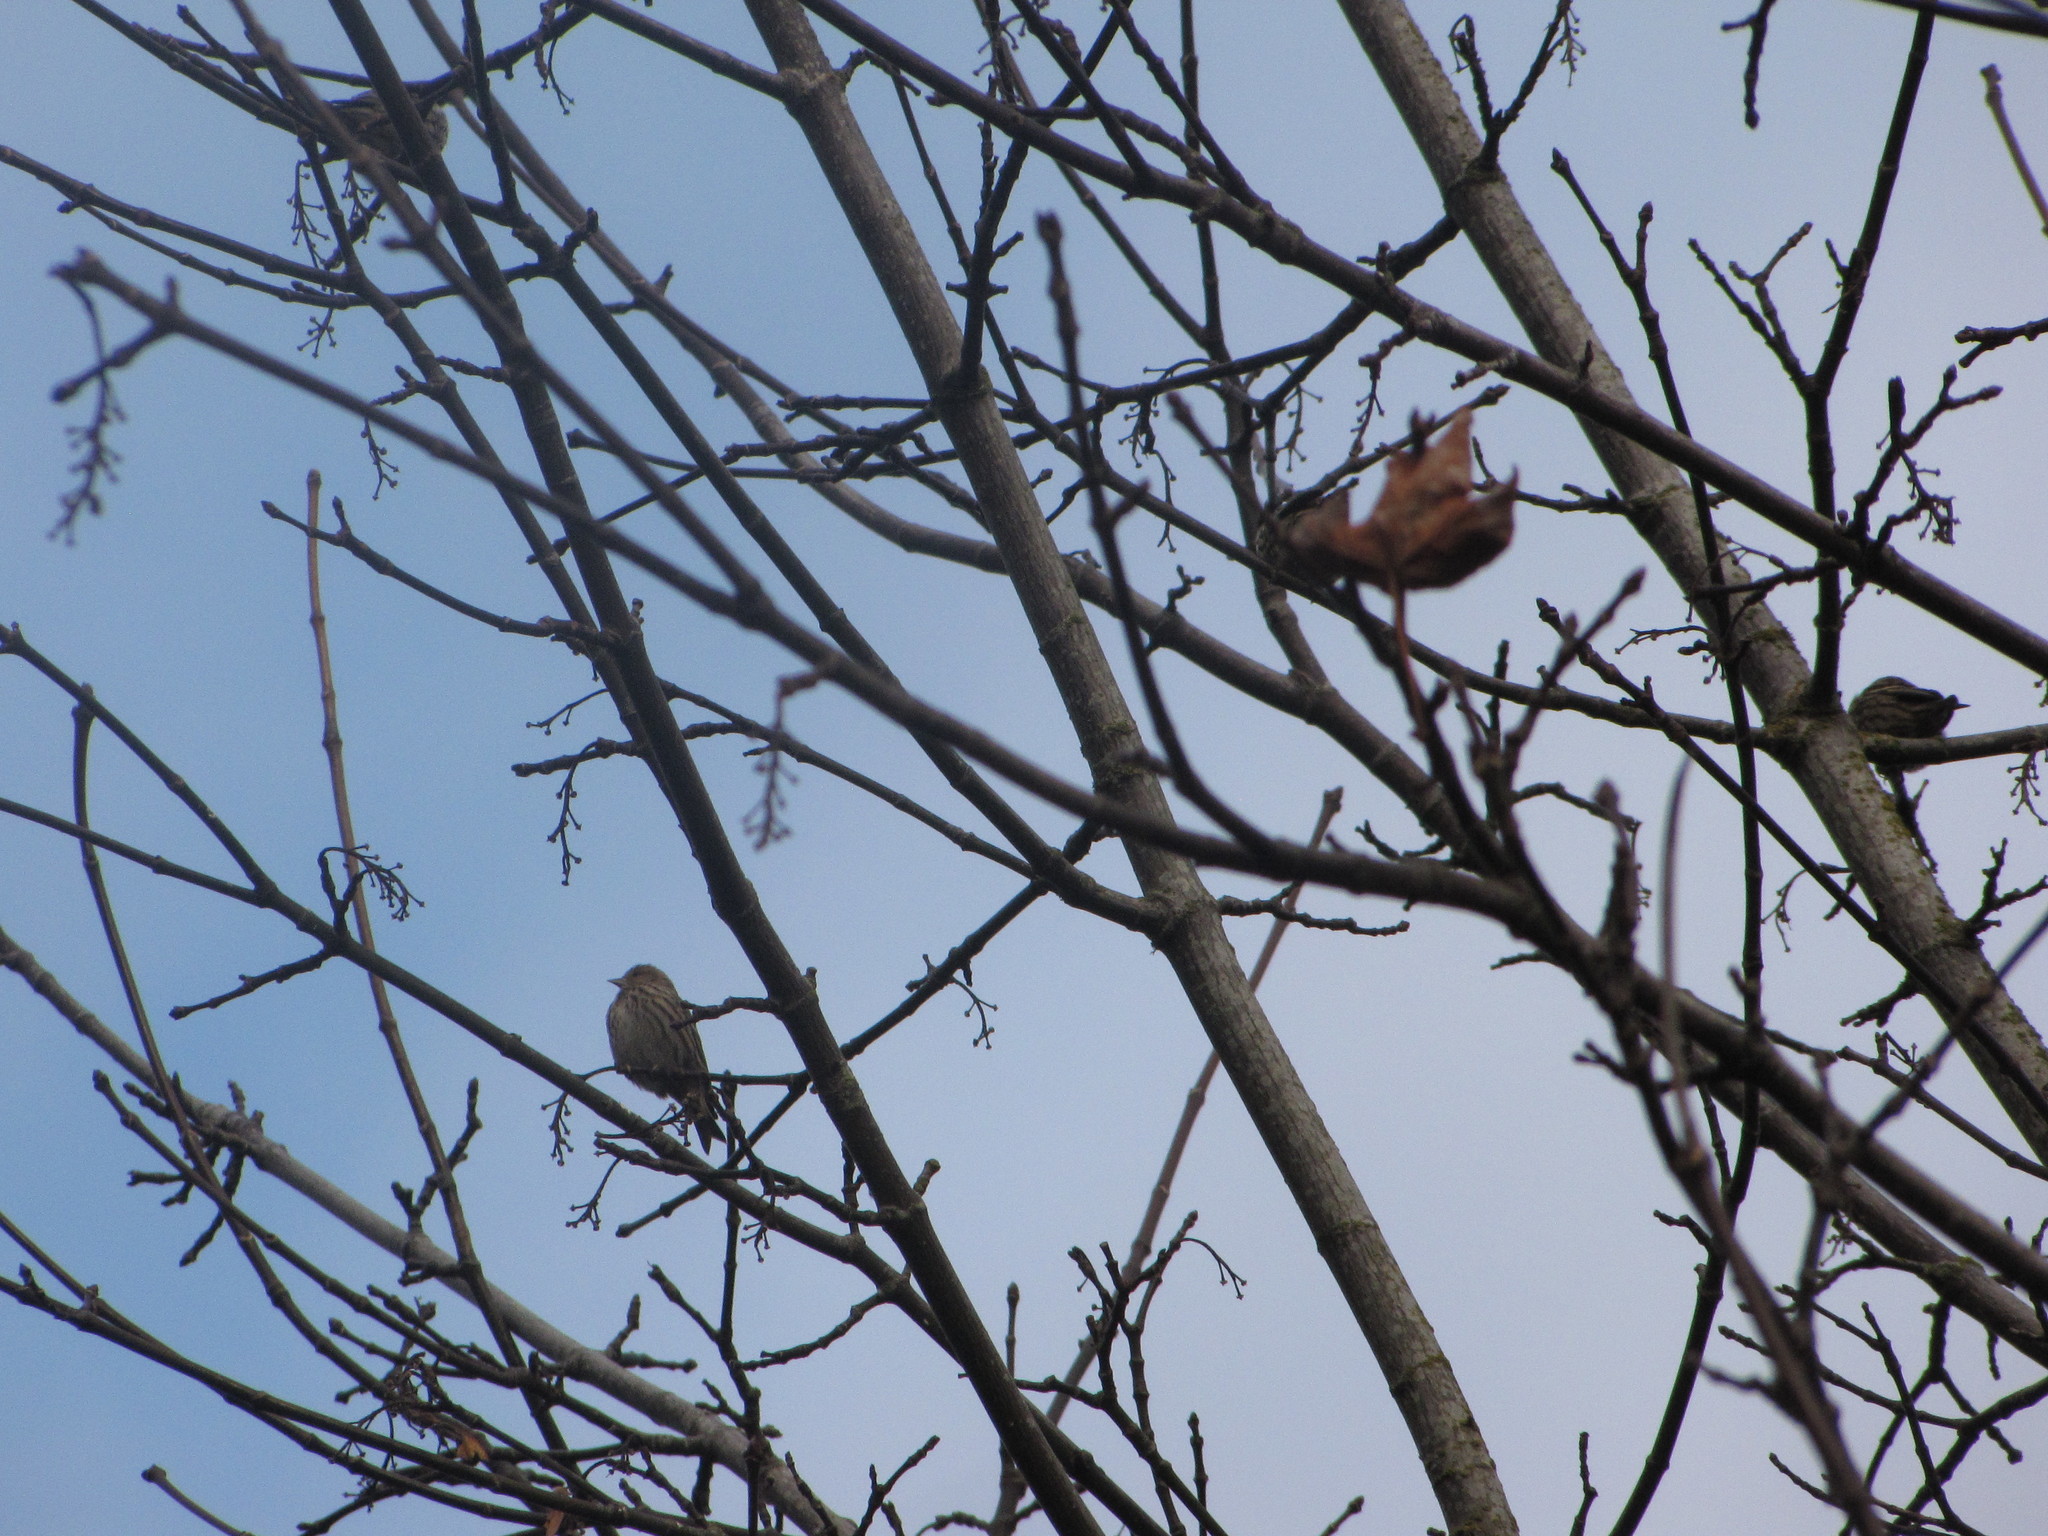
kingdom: Animalia
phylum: Chordata
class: Aves
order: Passeriformes
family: Fringillidae
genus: Spinus
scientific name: Spinus pinus
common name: Pine siskin
